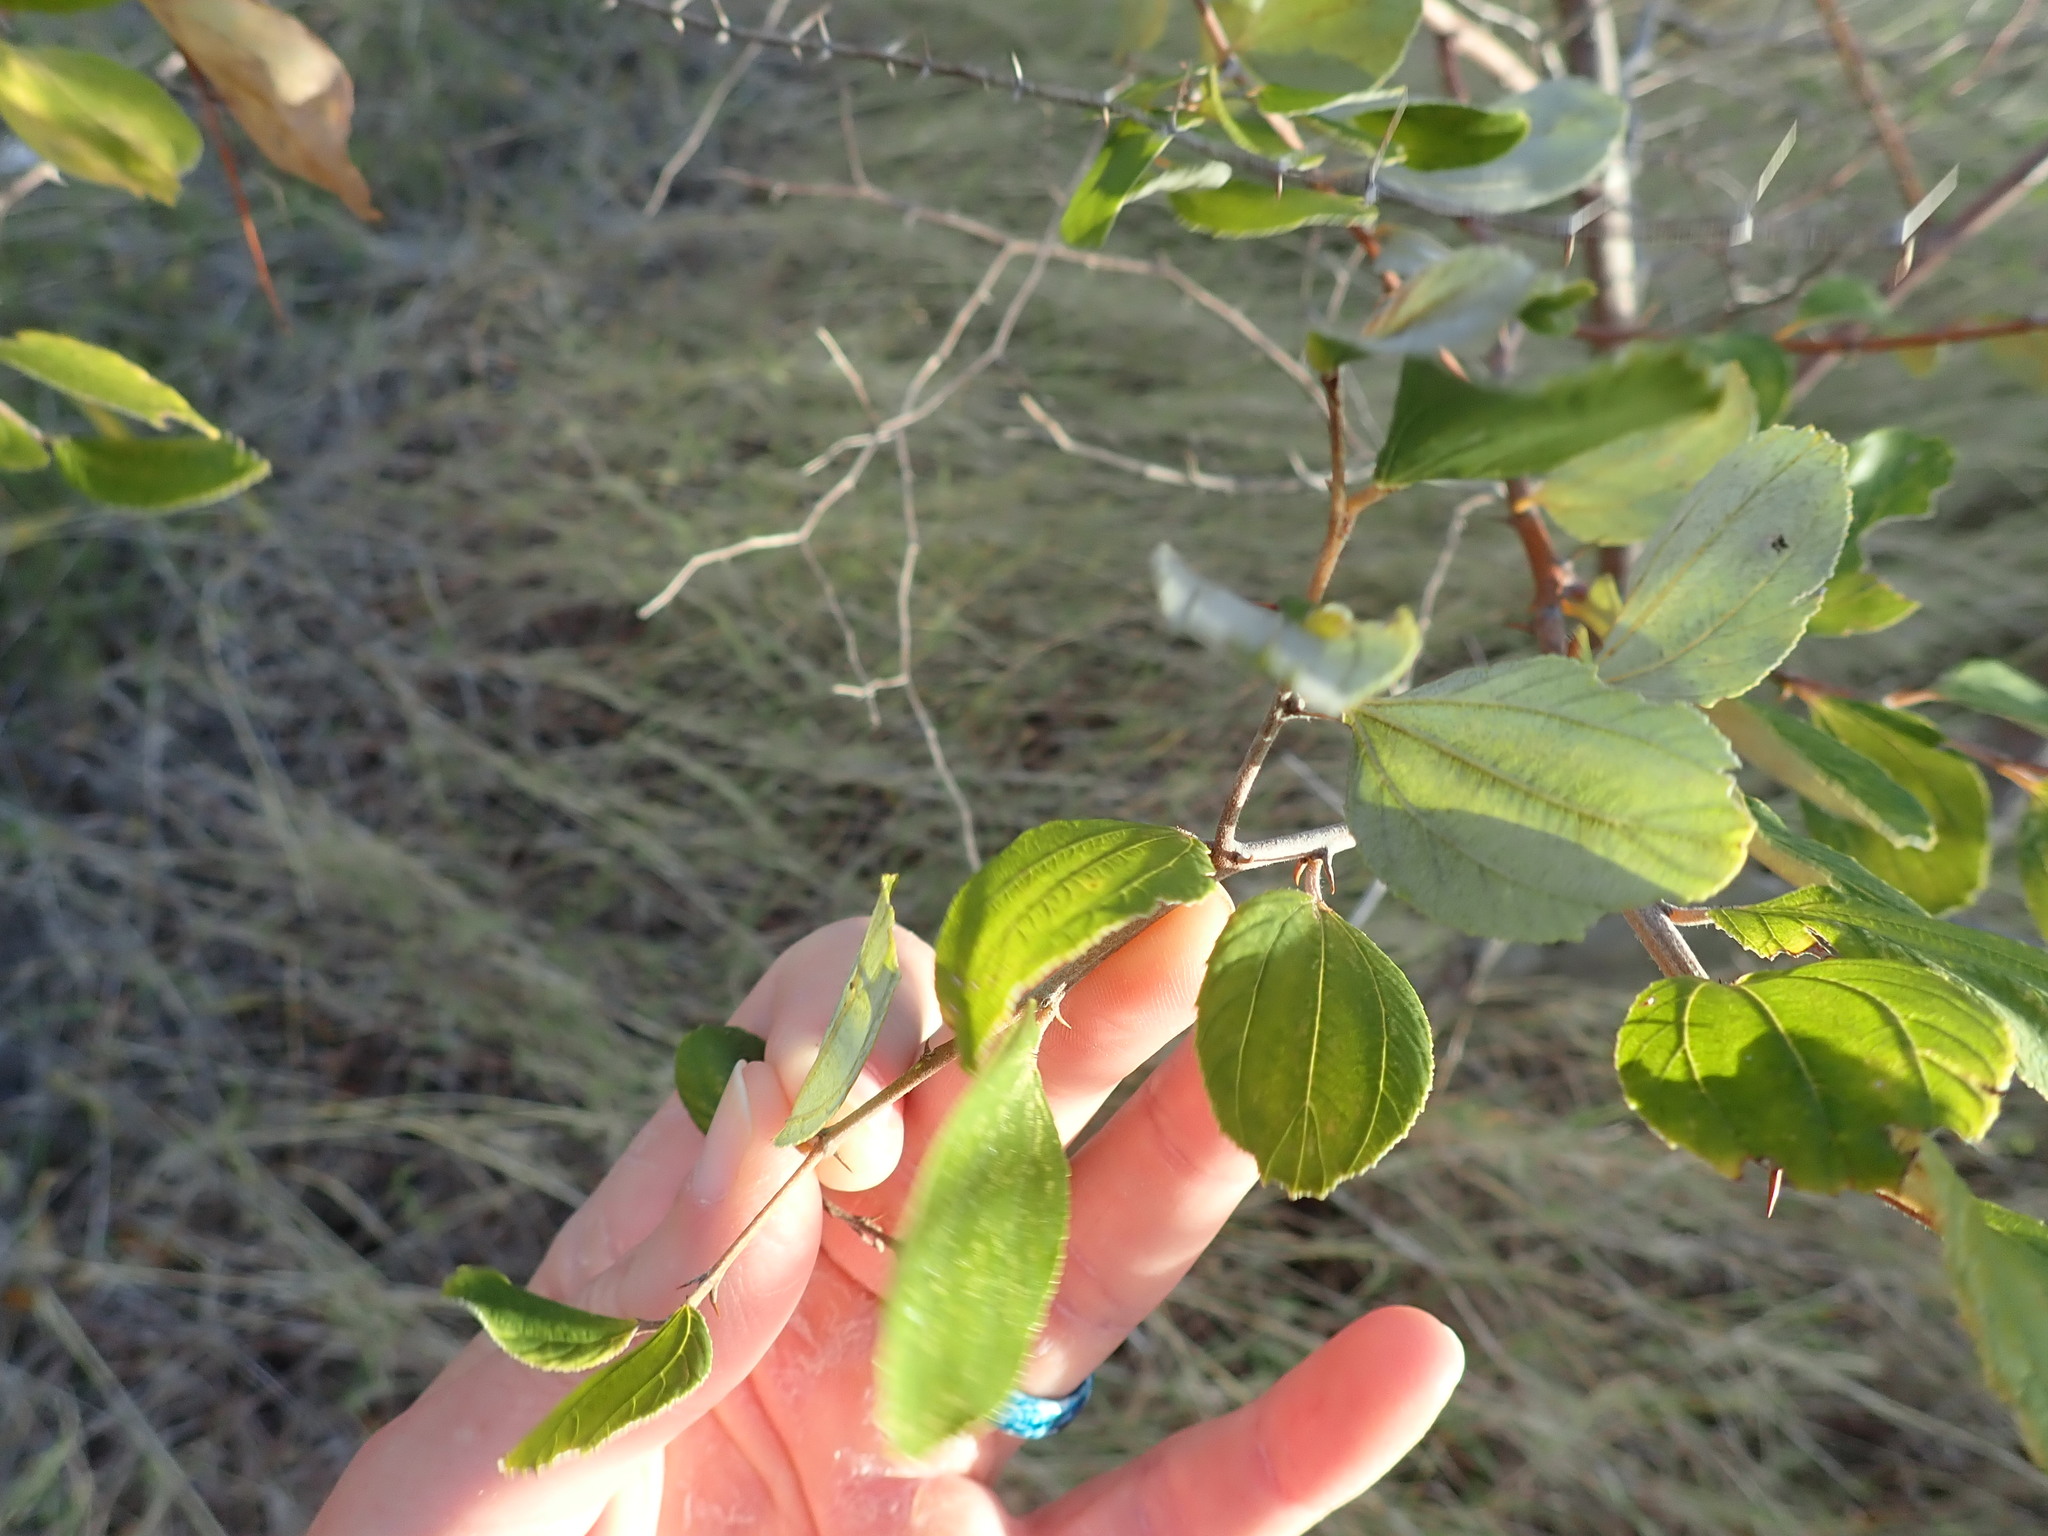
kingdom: Plantae
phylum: Tracheophyta
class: Magnoliopsida
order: Rosales
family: Rhamnaceae
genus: Ziziphus
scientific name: Ziziphus mauritiana
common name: Indian jujube
